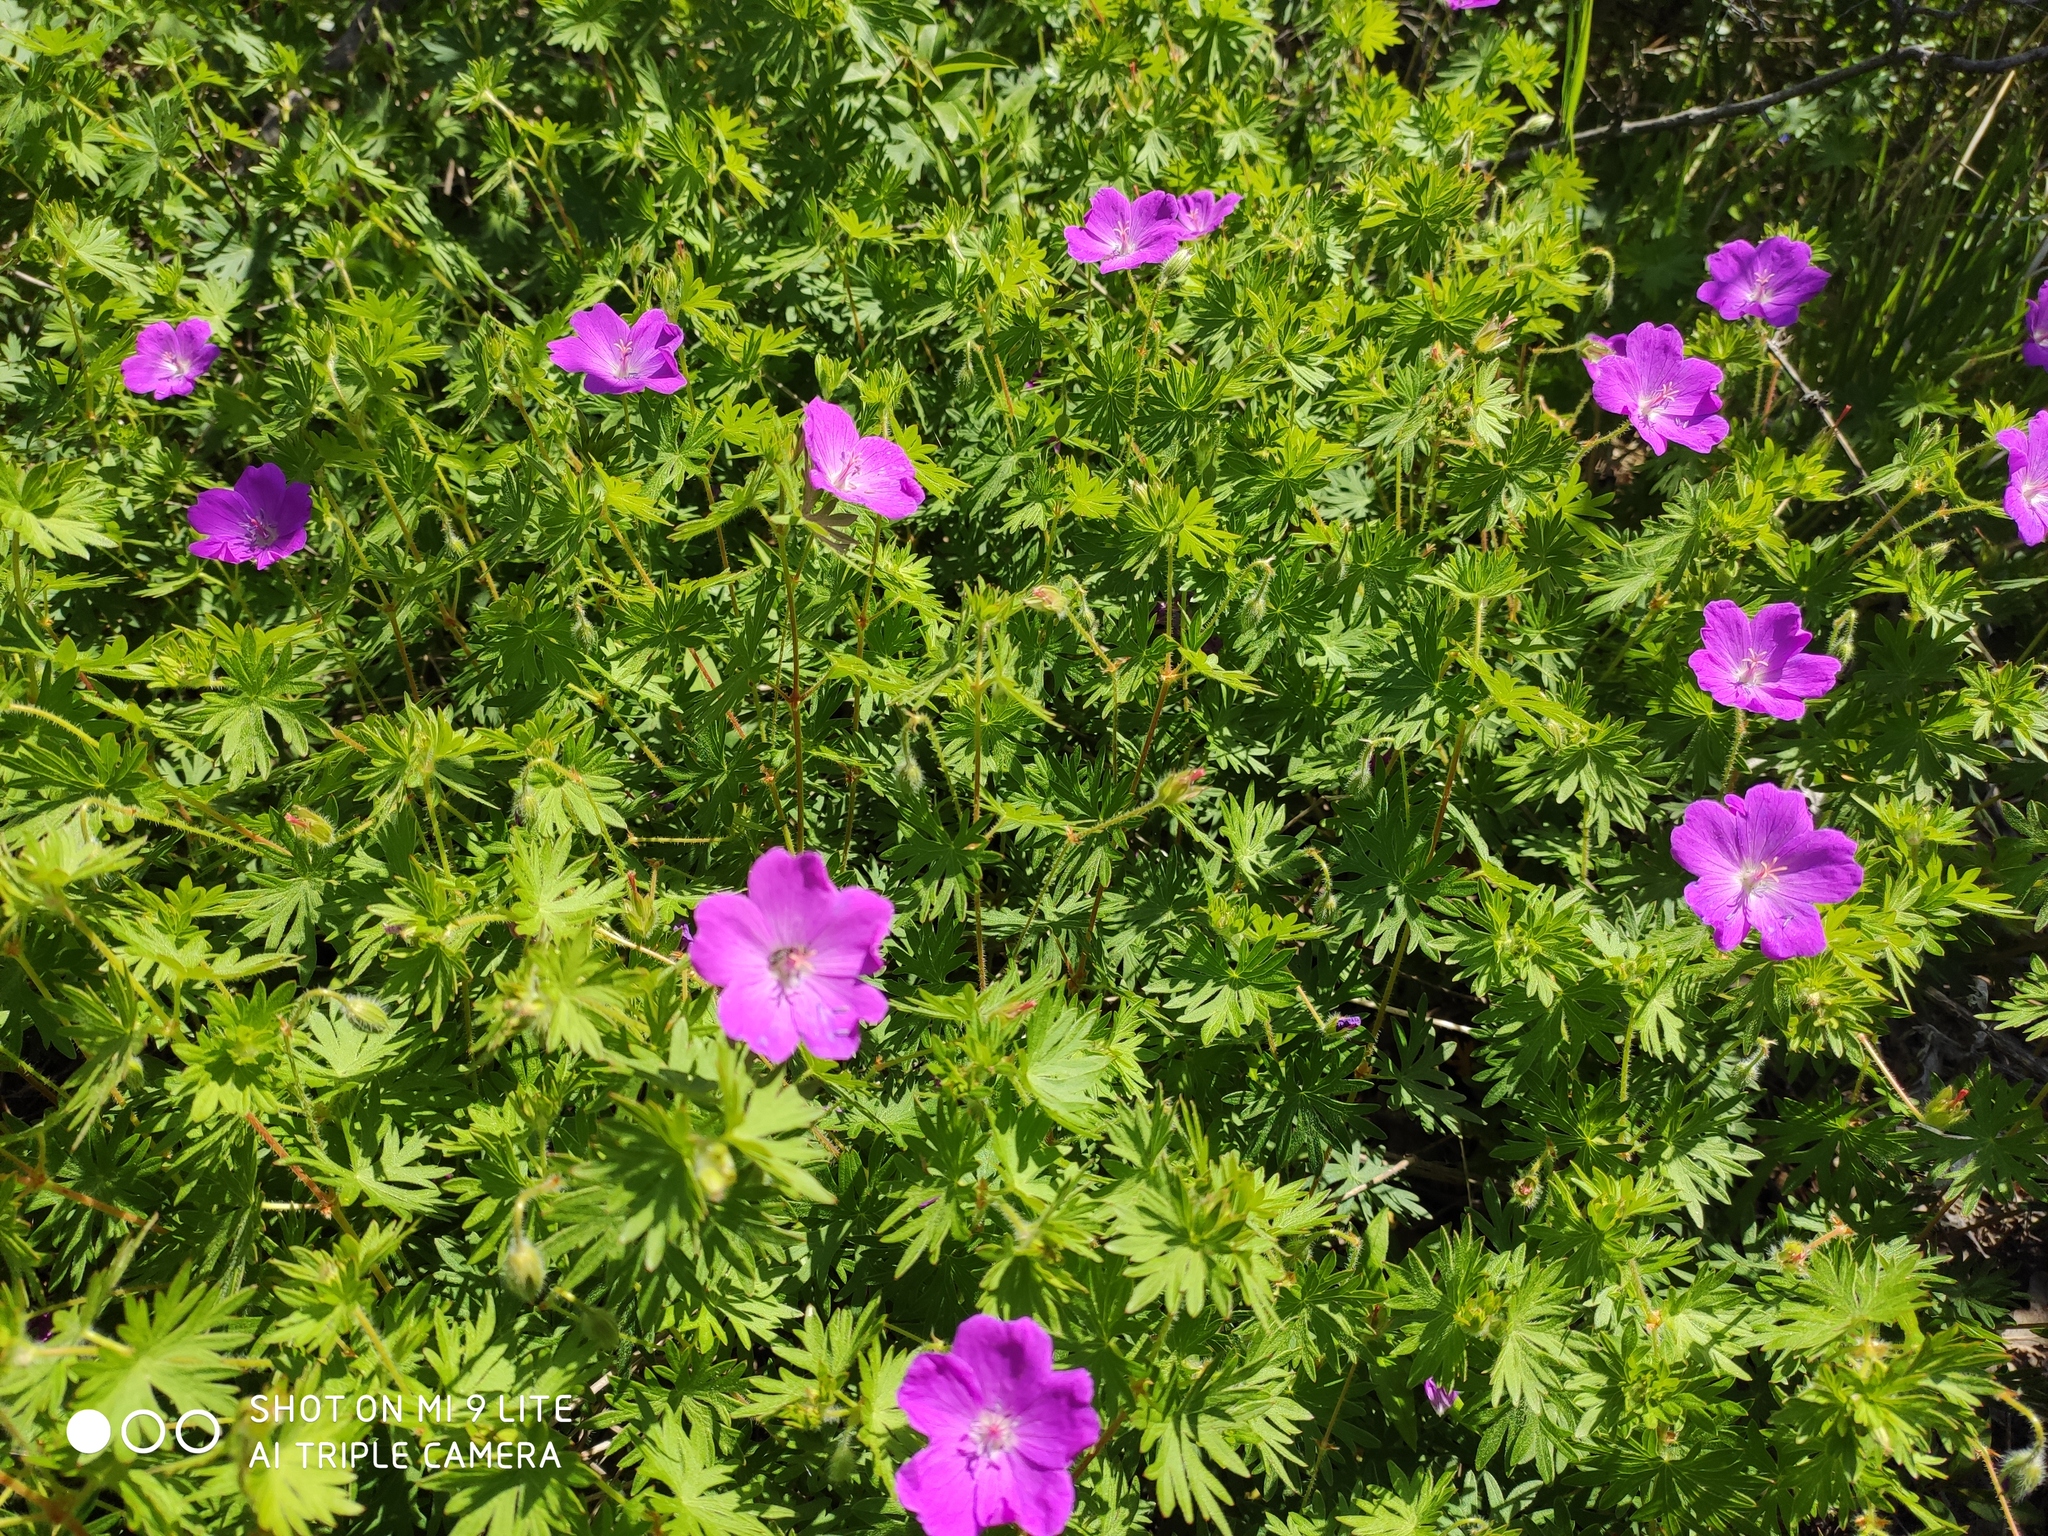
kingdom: Plantae
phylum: Tracheophyta
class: Magnoliopsida
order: Geraniales
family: Geraniaceae
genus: Geranium
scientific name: Geranium sanguineum
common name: Bloody crane's-bill
